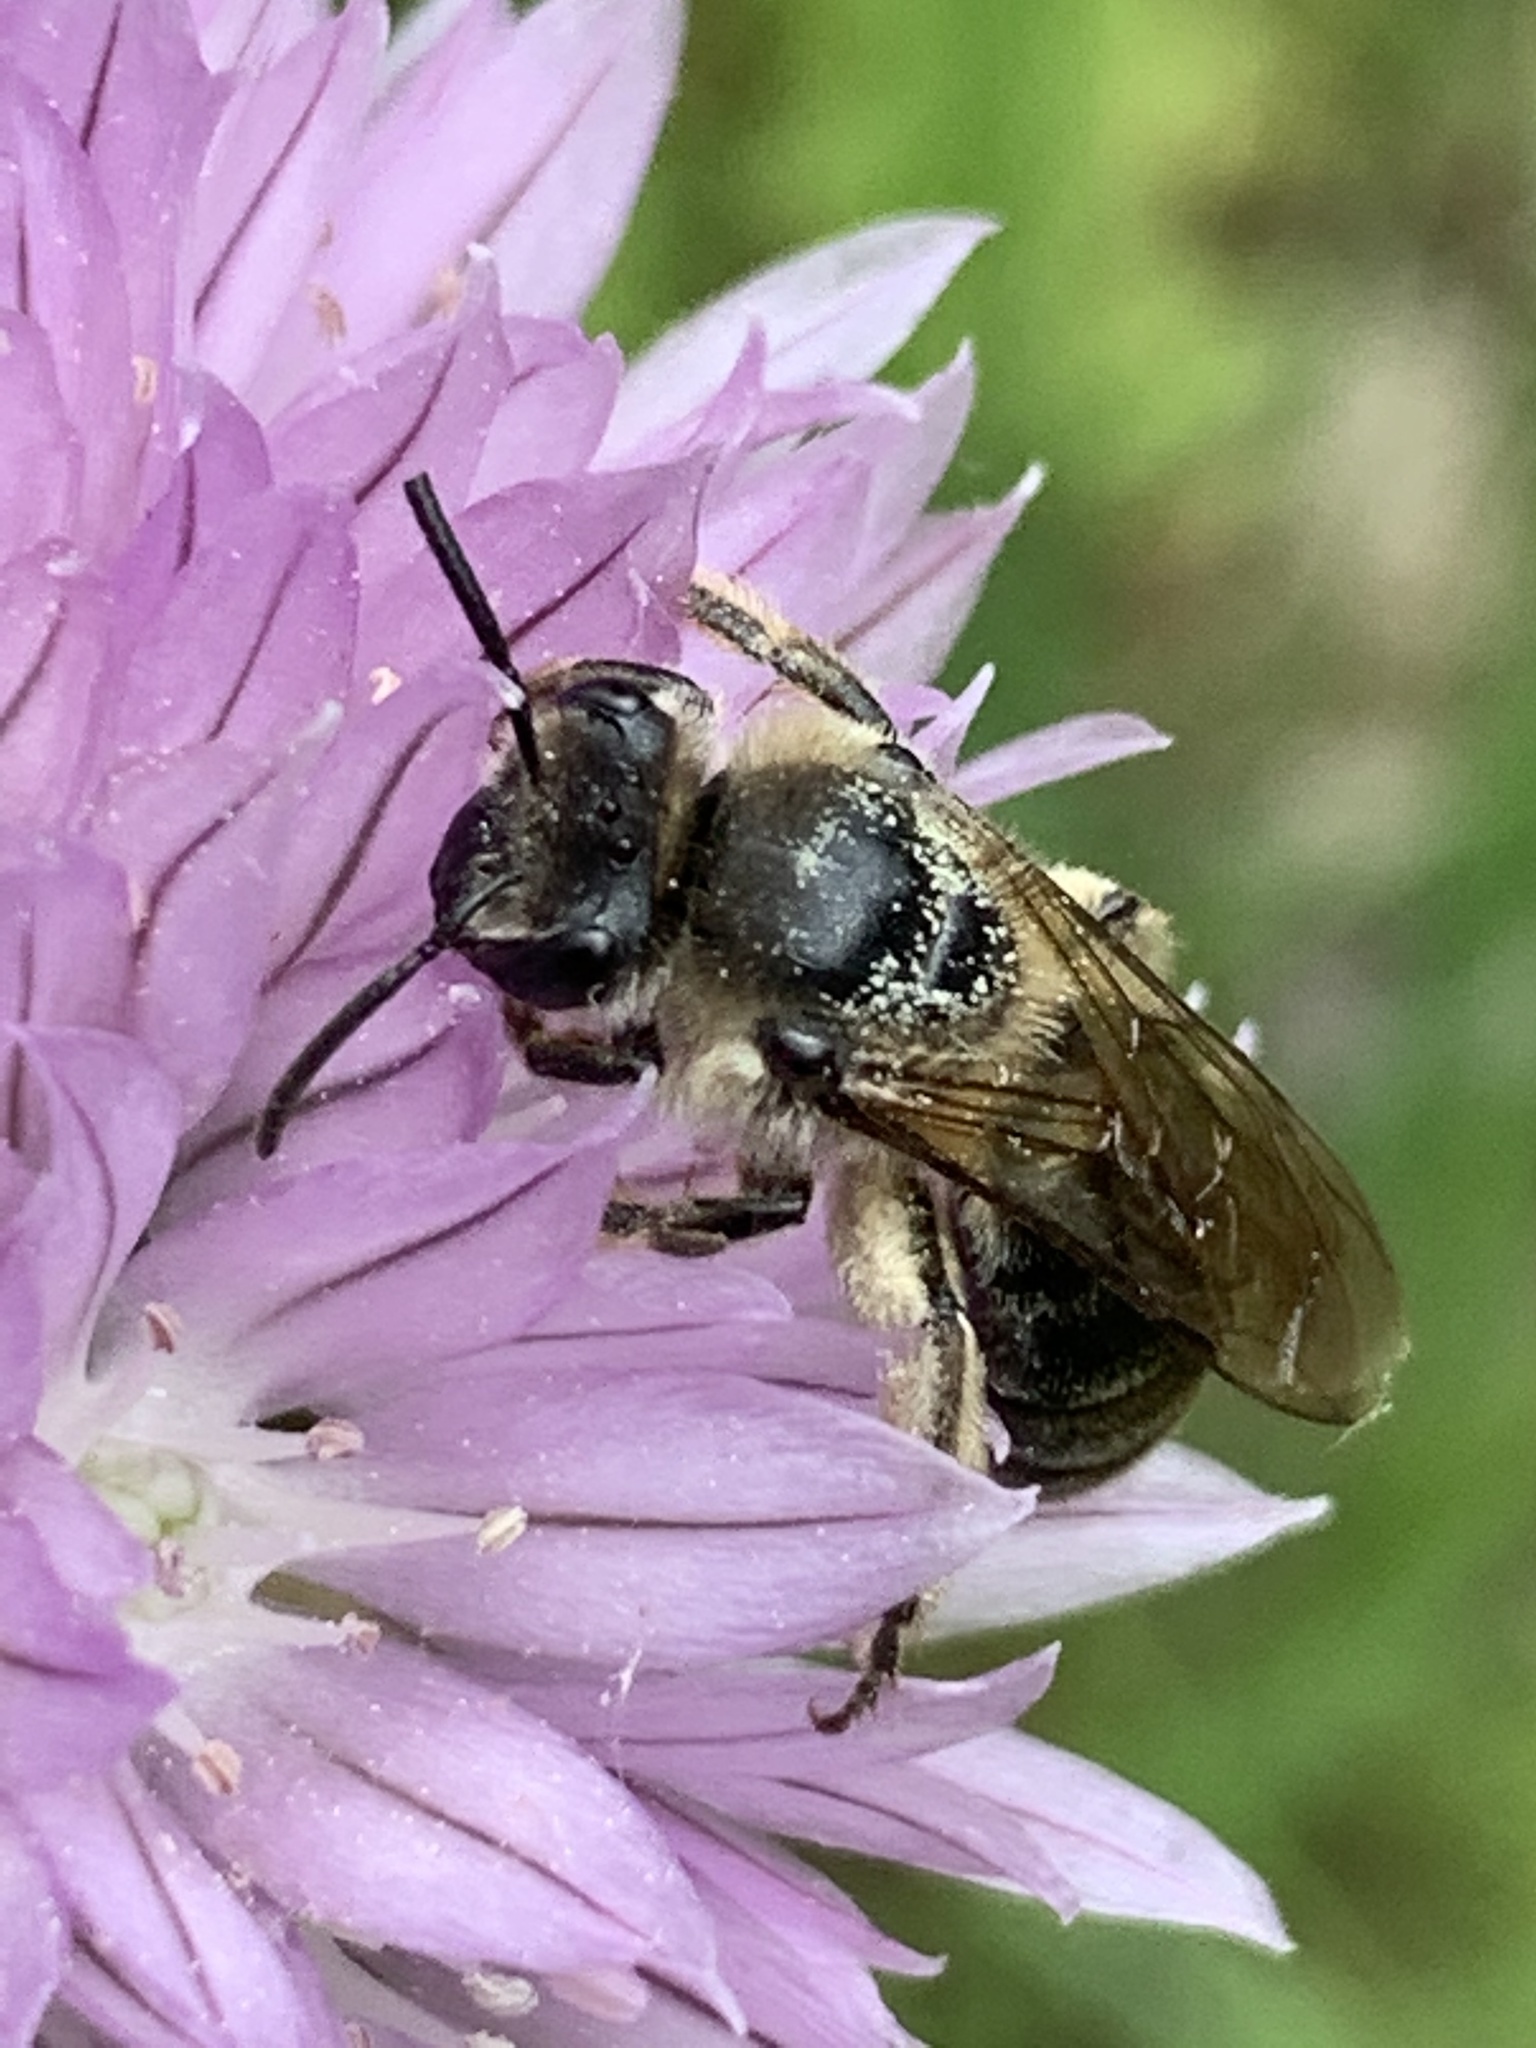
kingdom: Animalia
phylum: Arthropoda
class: Insecta
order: Hymenoptera
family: Colletidae
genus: Colletes
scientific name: Colletes inaequalis
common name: Unequal cellophane bee
